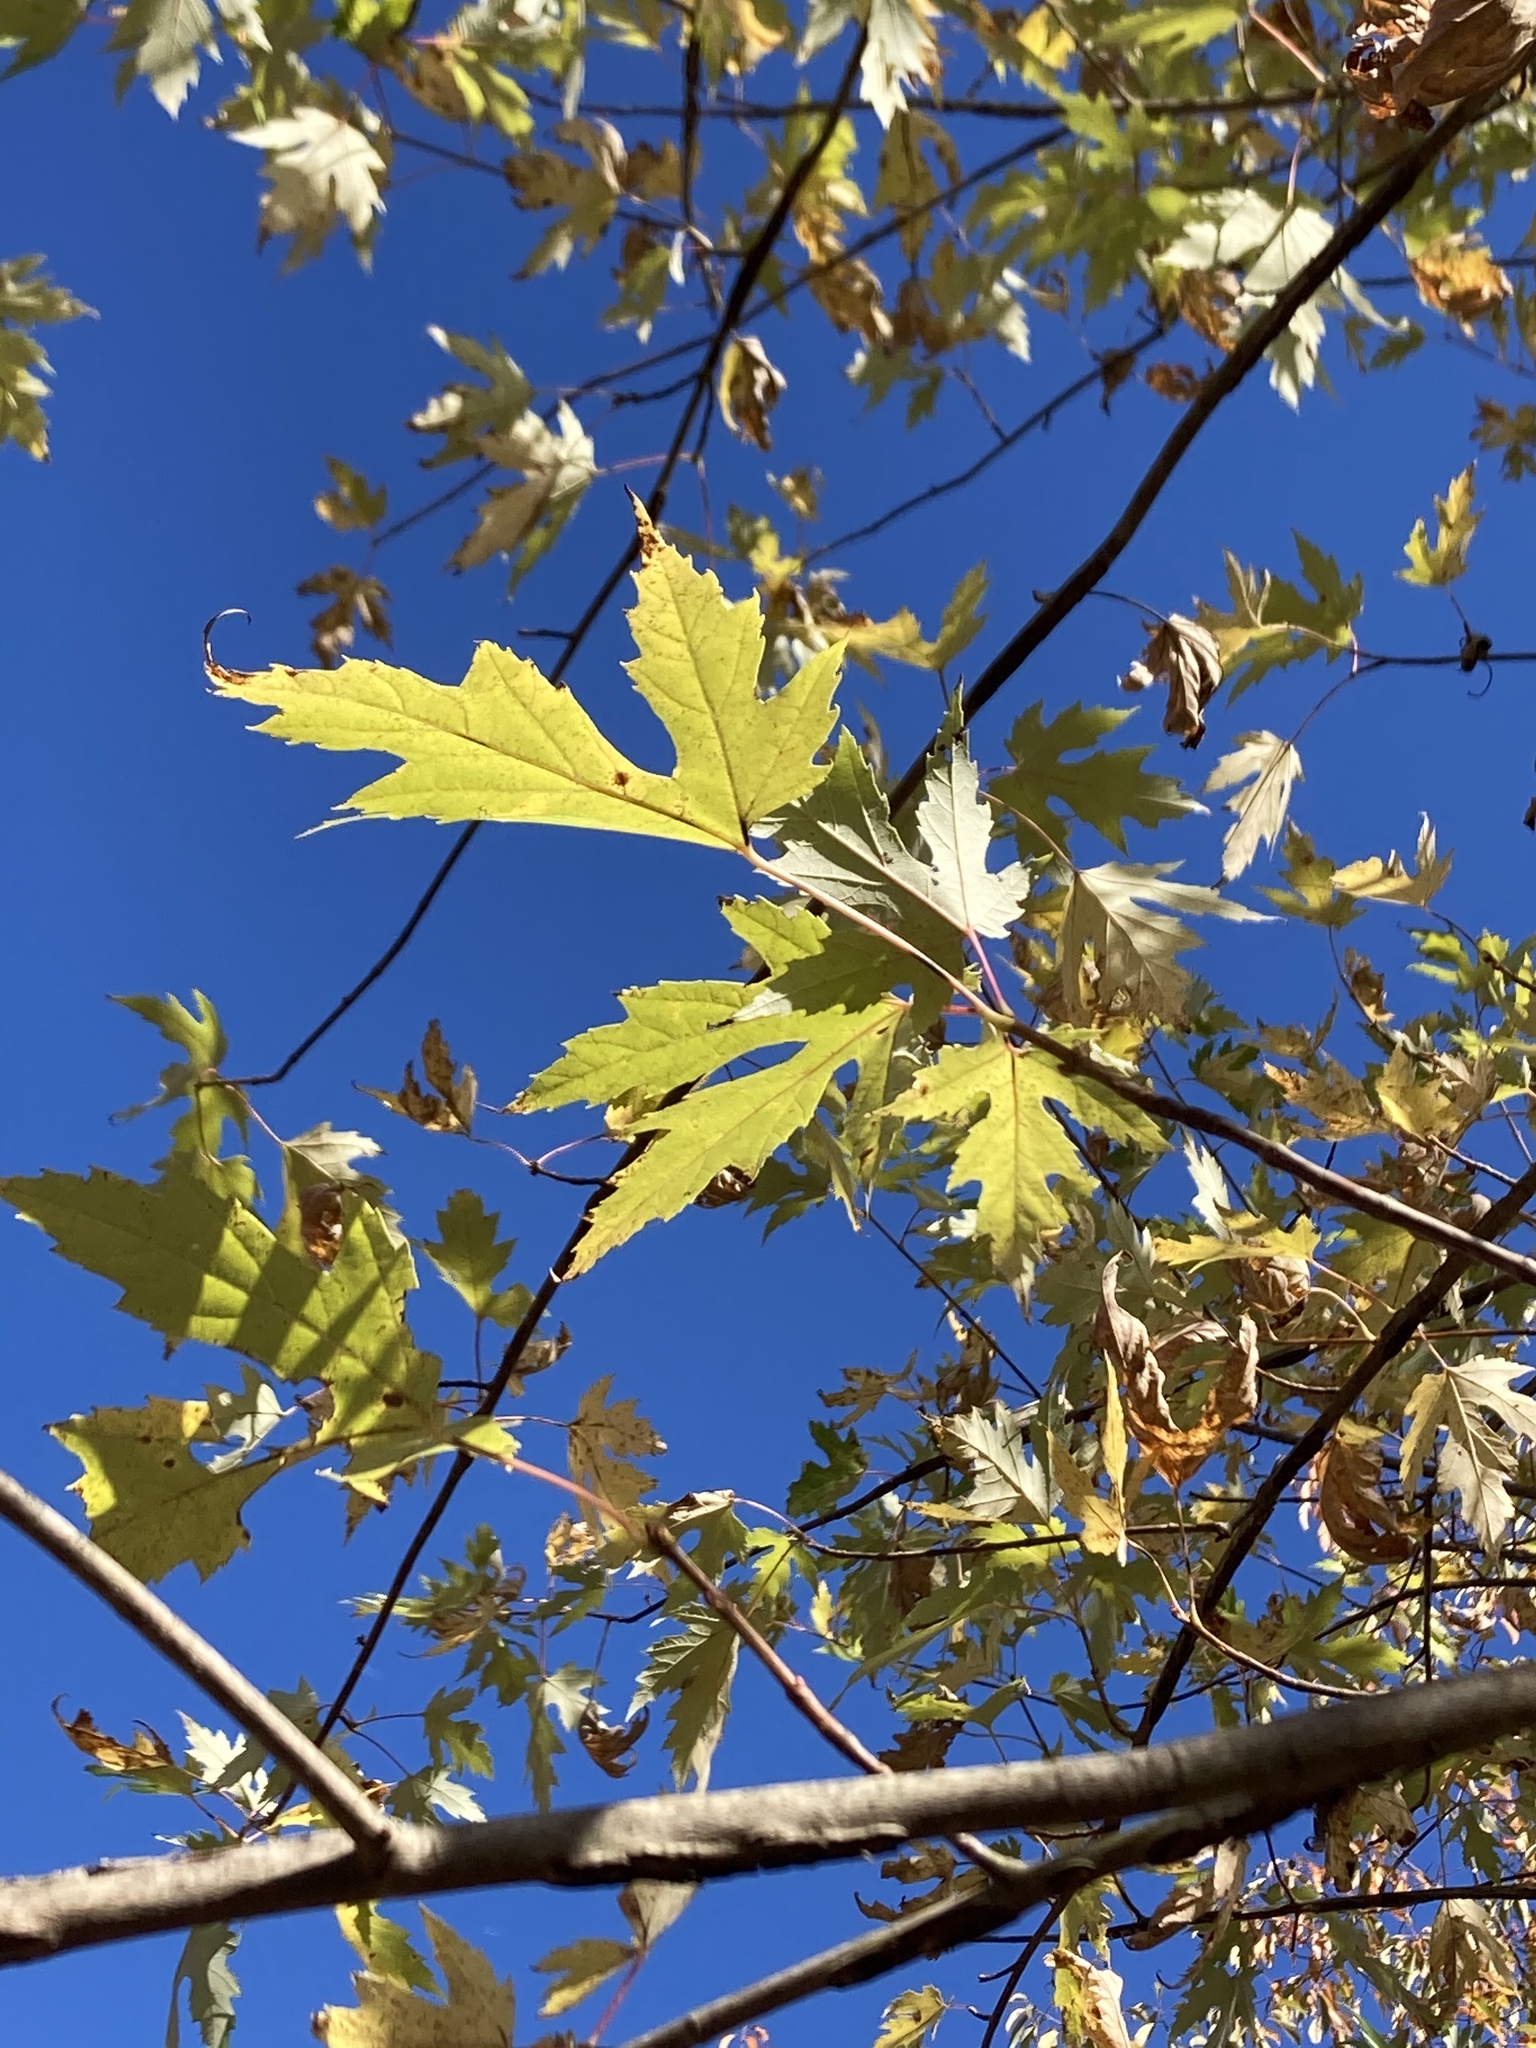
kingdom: Plantae
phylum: Tracheophyta
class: Magnoliopsida
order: Sapindales
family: Sapindaceae
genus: Acer
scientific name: Acer saccharinum
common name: Silver maple
